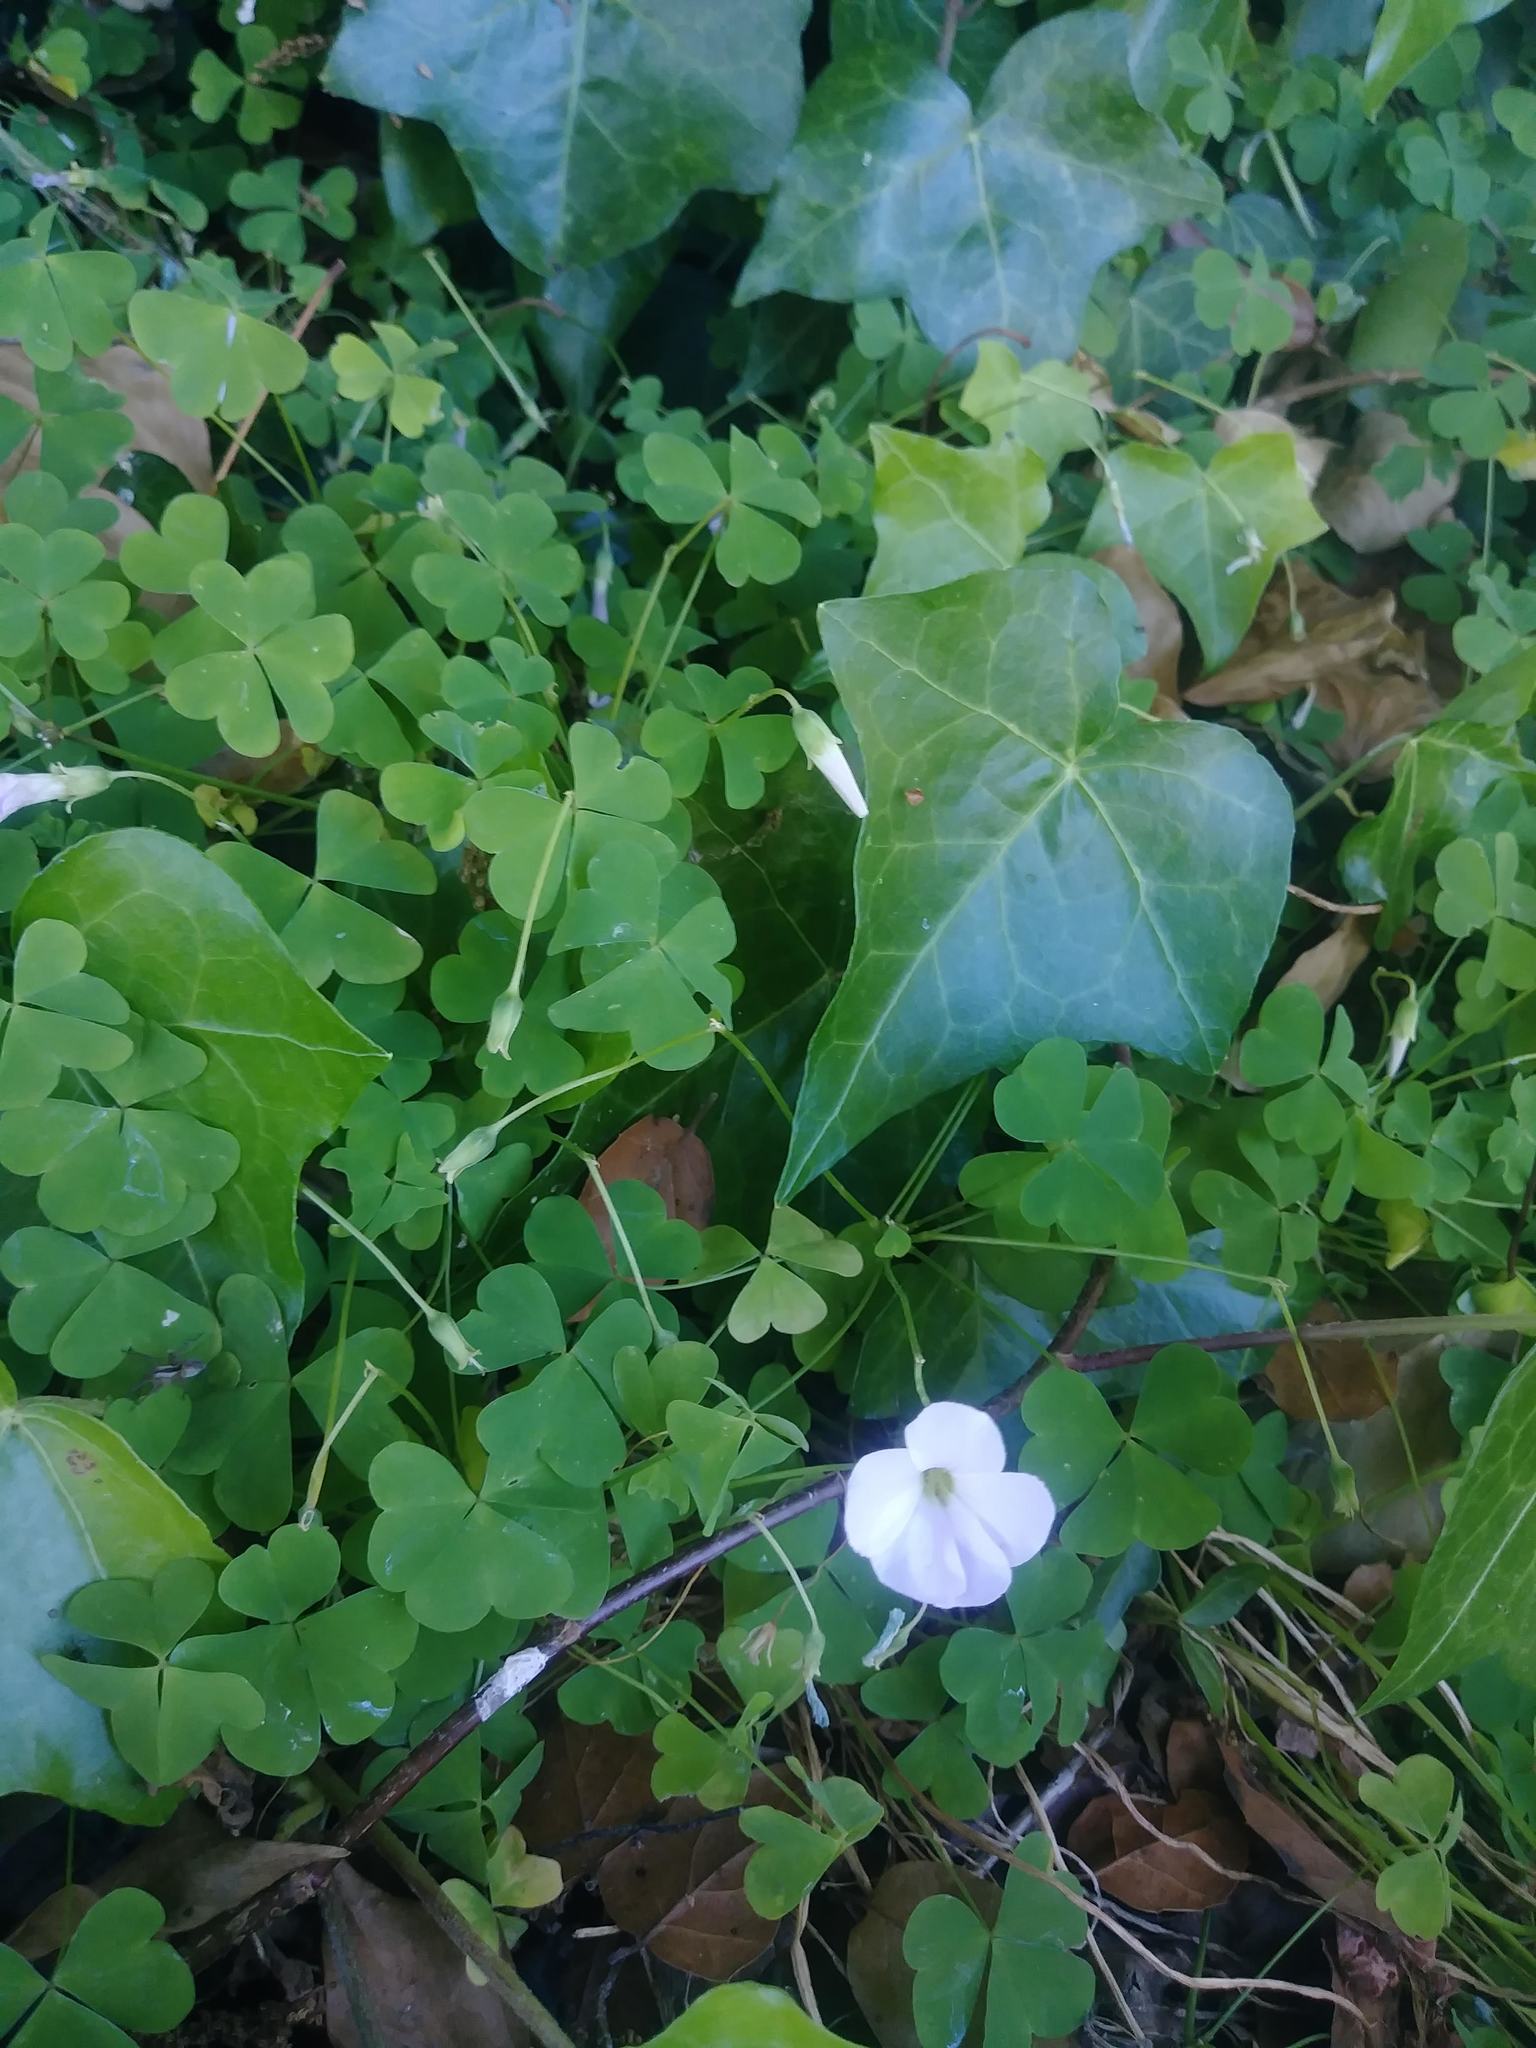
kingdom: Plantae
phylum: Tracheophyta
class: Magnoliopsida
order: Oxalidales
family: Oxalidaceae
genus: Oxalis
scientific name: Oxalis incarnata
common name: Pale pink-sorrel
